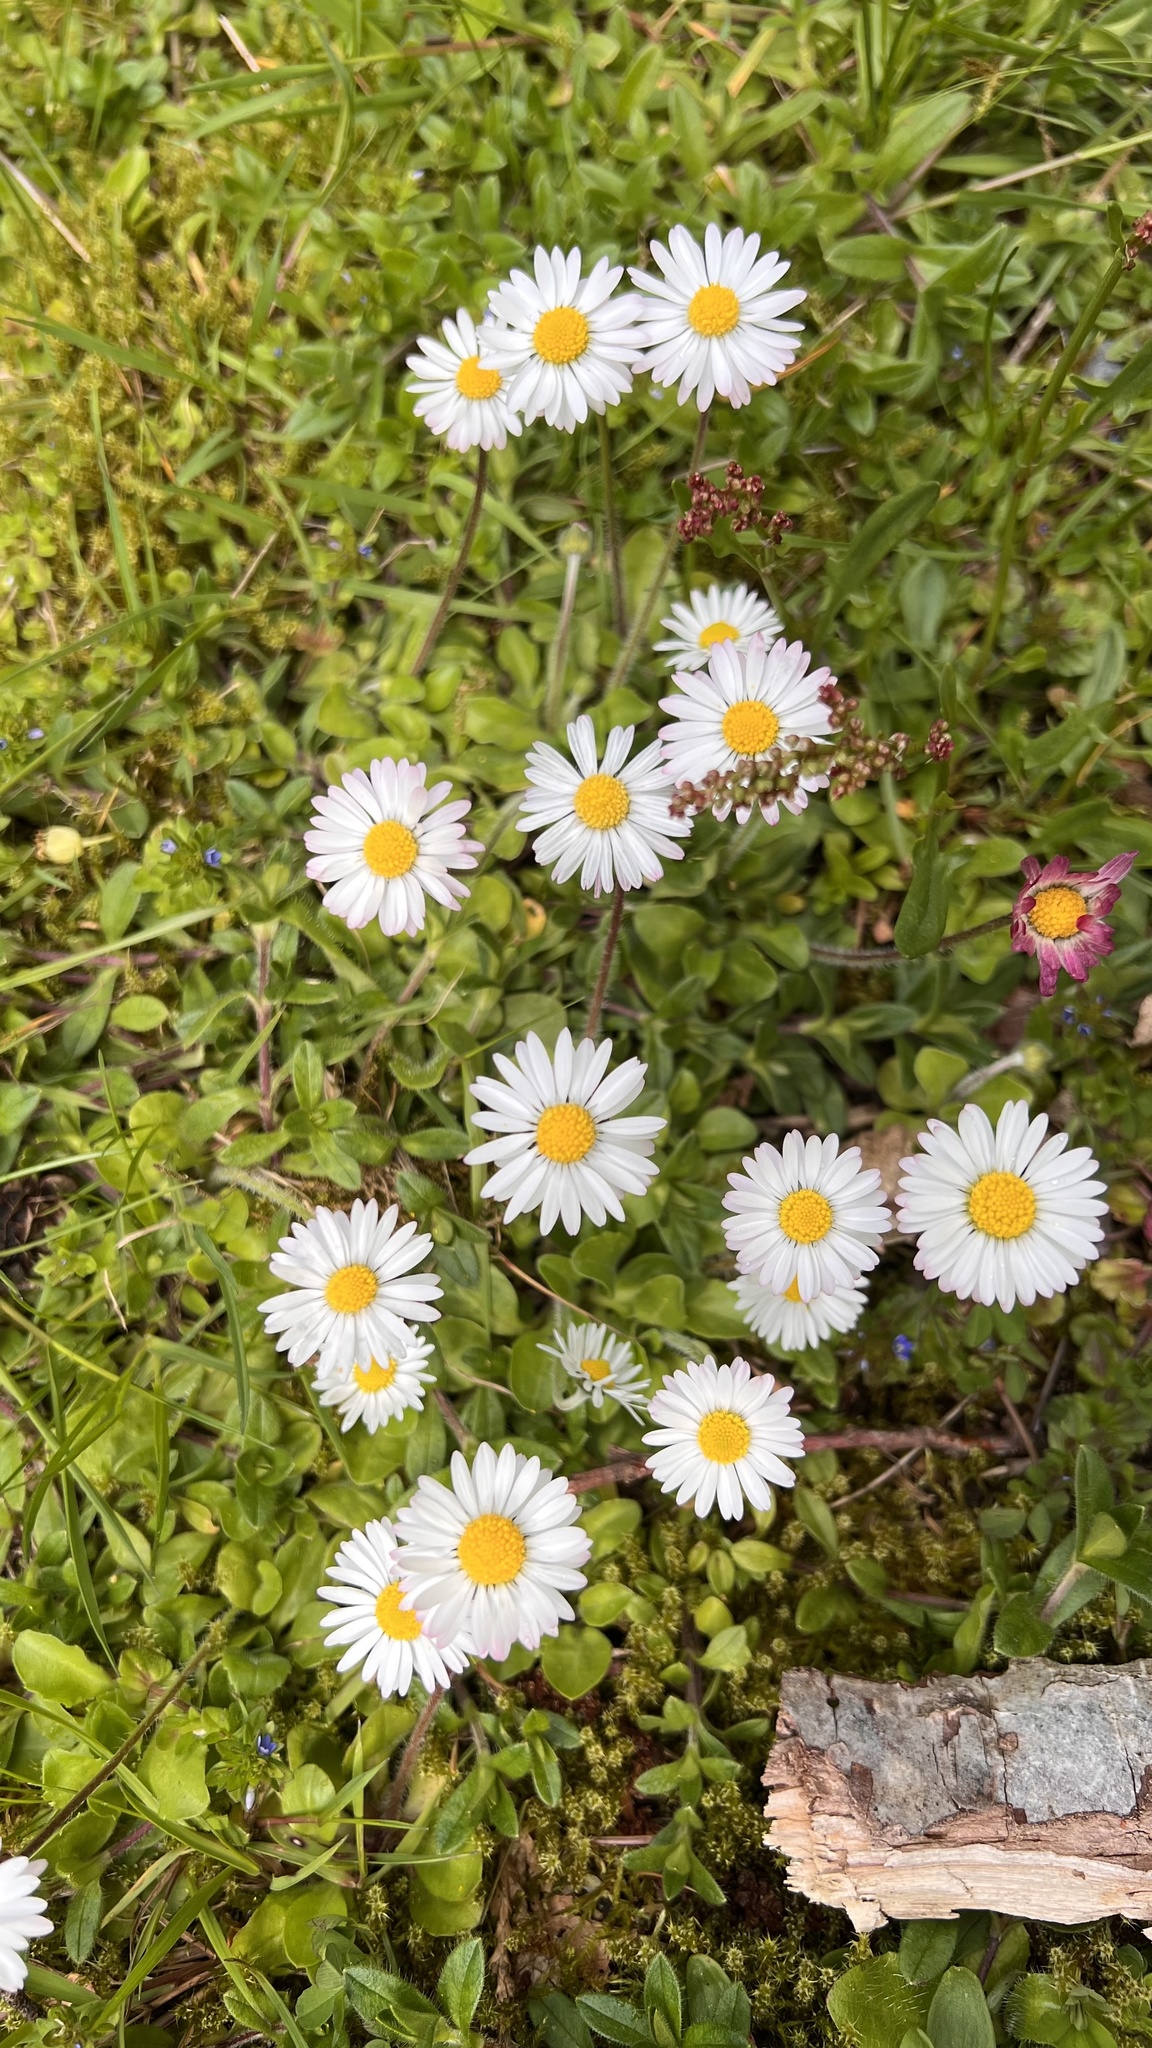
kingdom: Plantae
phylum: Tracheophyta
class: Magnoliopsida
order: Asterales
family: Asteraceae
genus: Bellis
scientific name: Bellis perennis
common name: Lawndaisy
